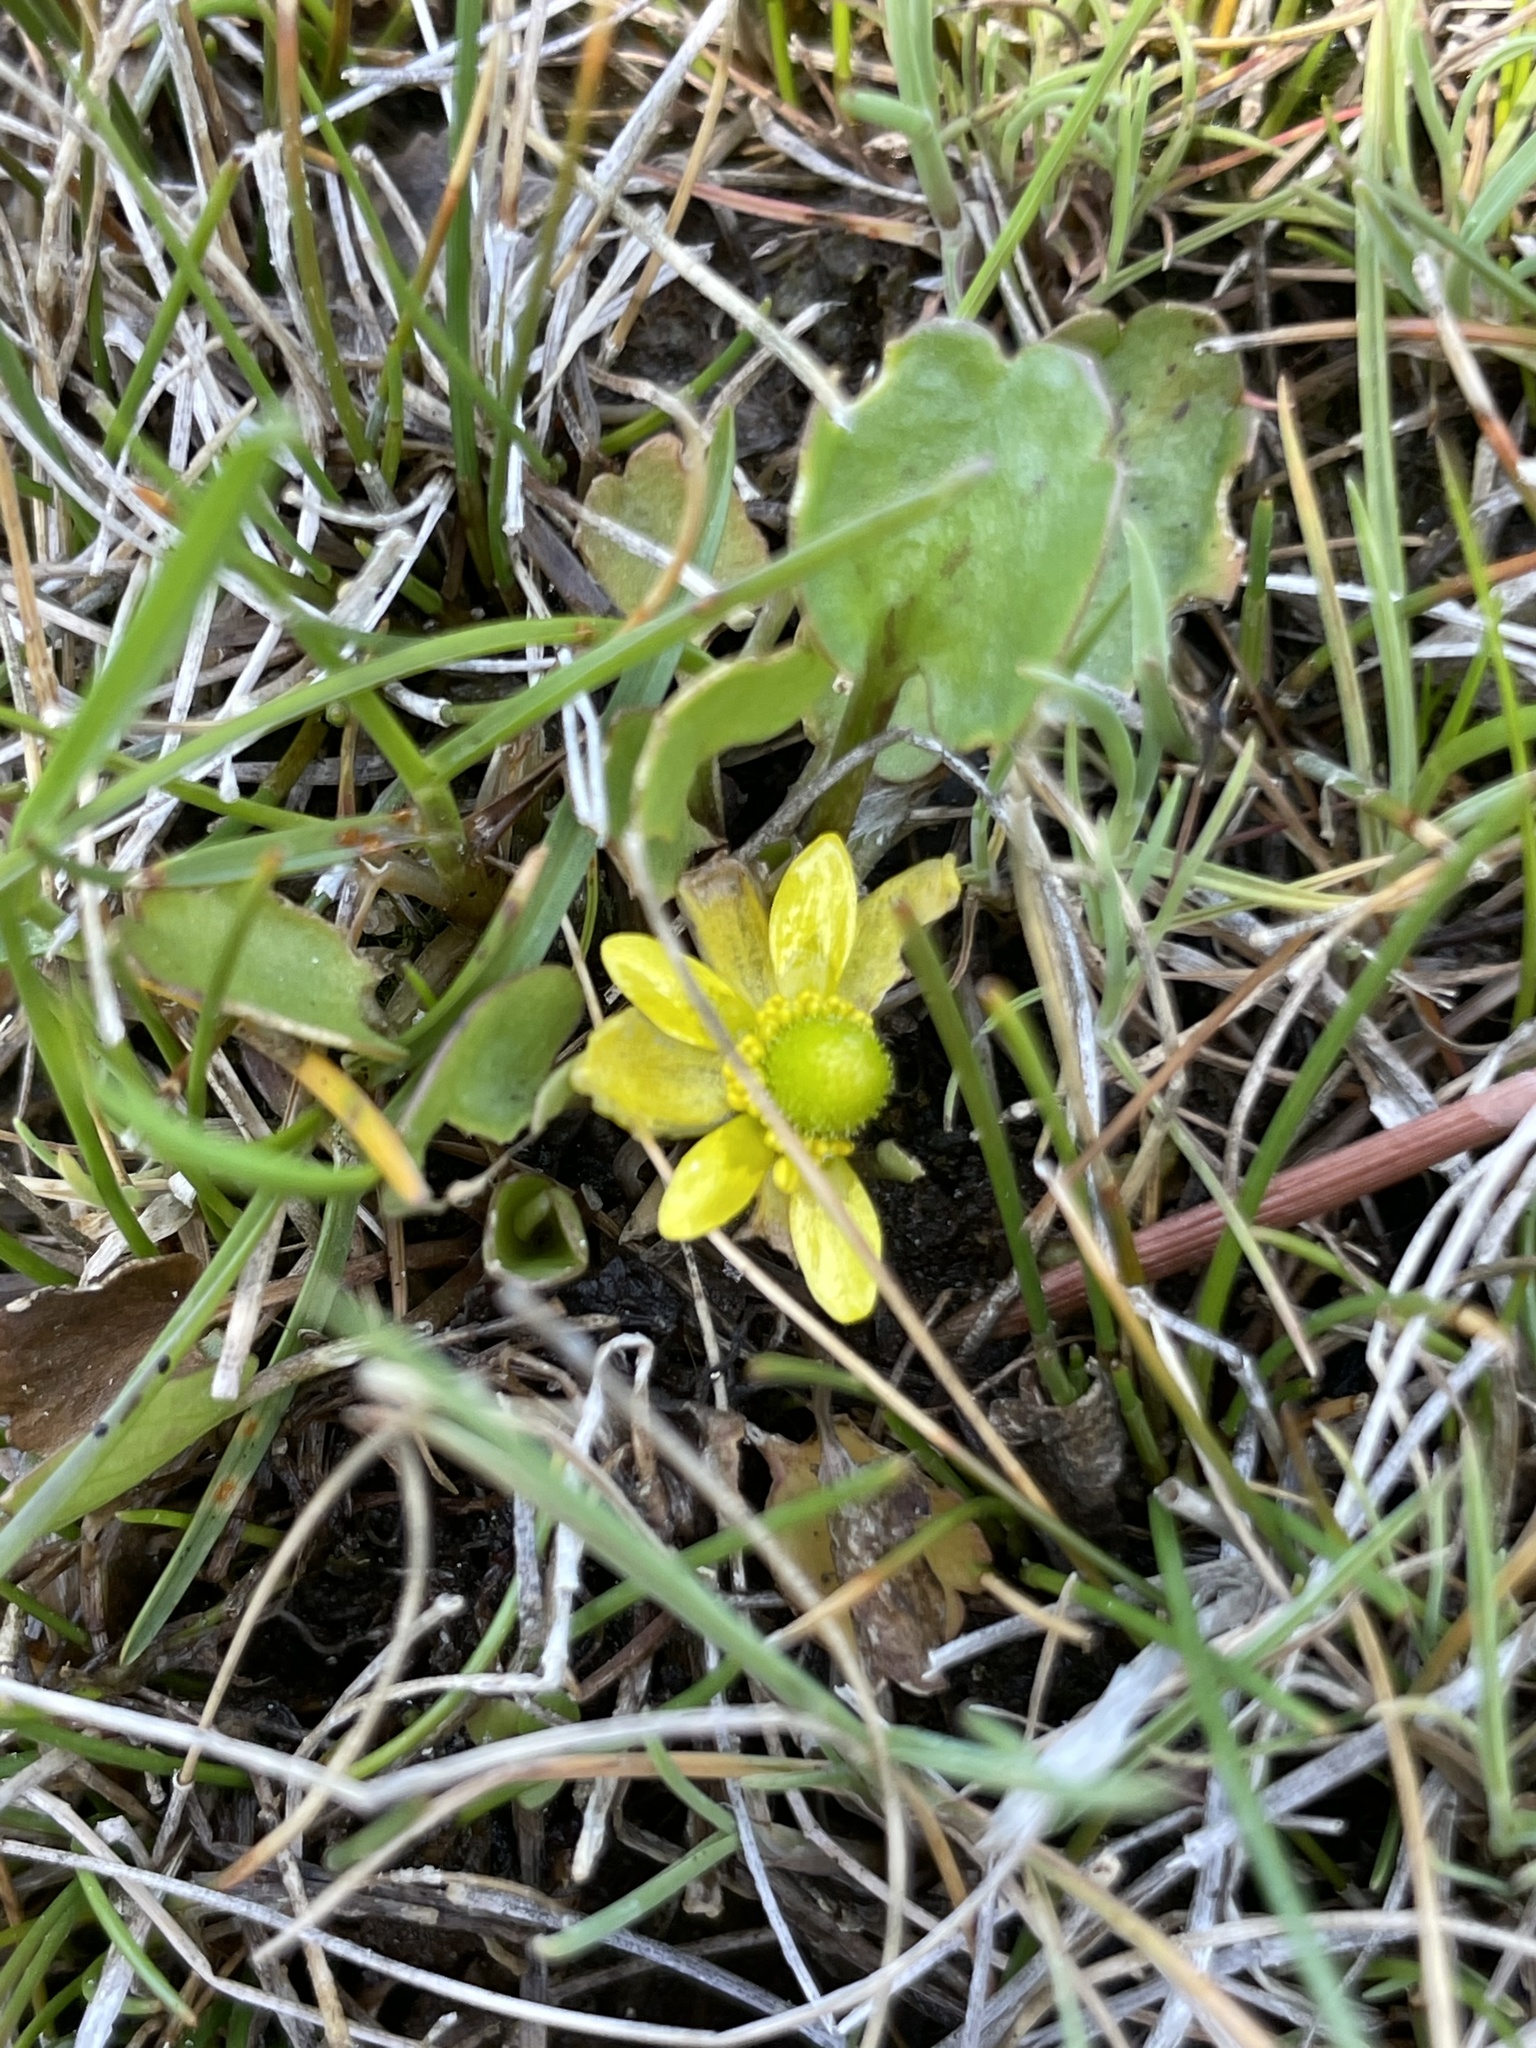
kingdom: Plantae
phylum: Tracheophyta
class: Magnoliopsida
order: Ranunculales
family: Ranunculaceae
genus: Halerpestes
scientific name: Halerpestes cymbalaria
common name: Seaside crowfoot
